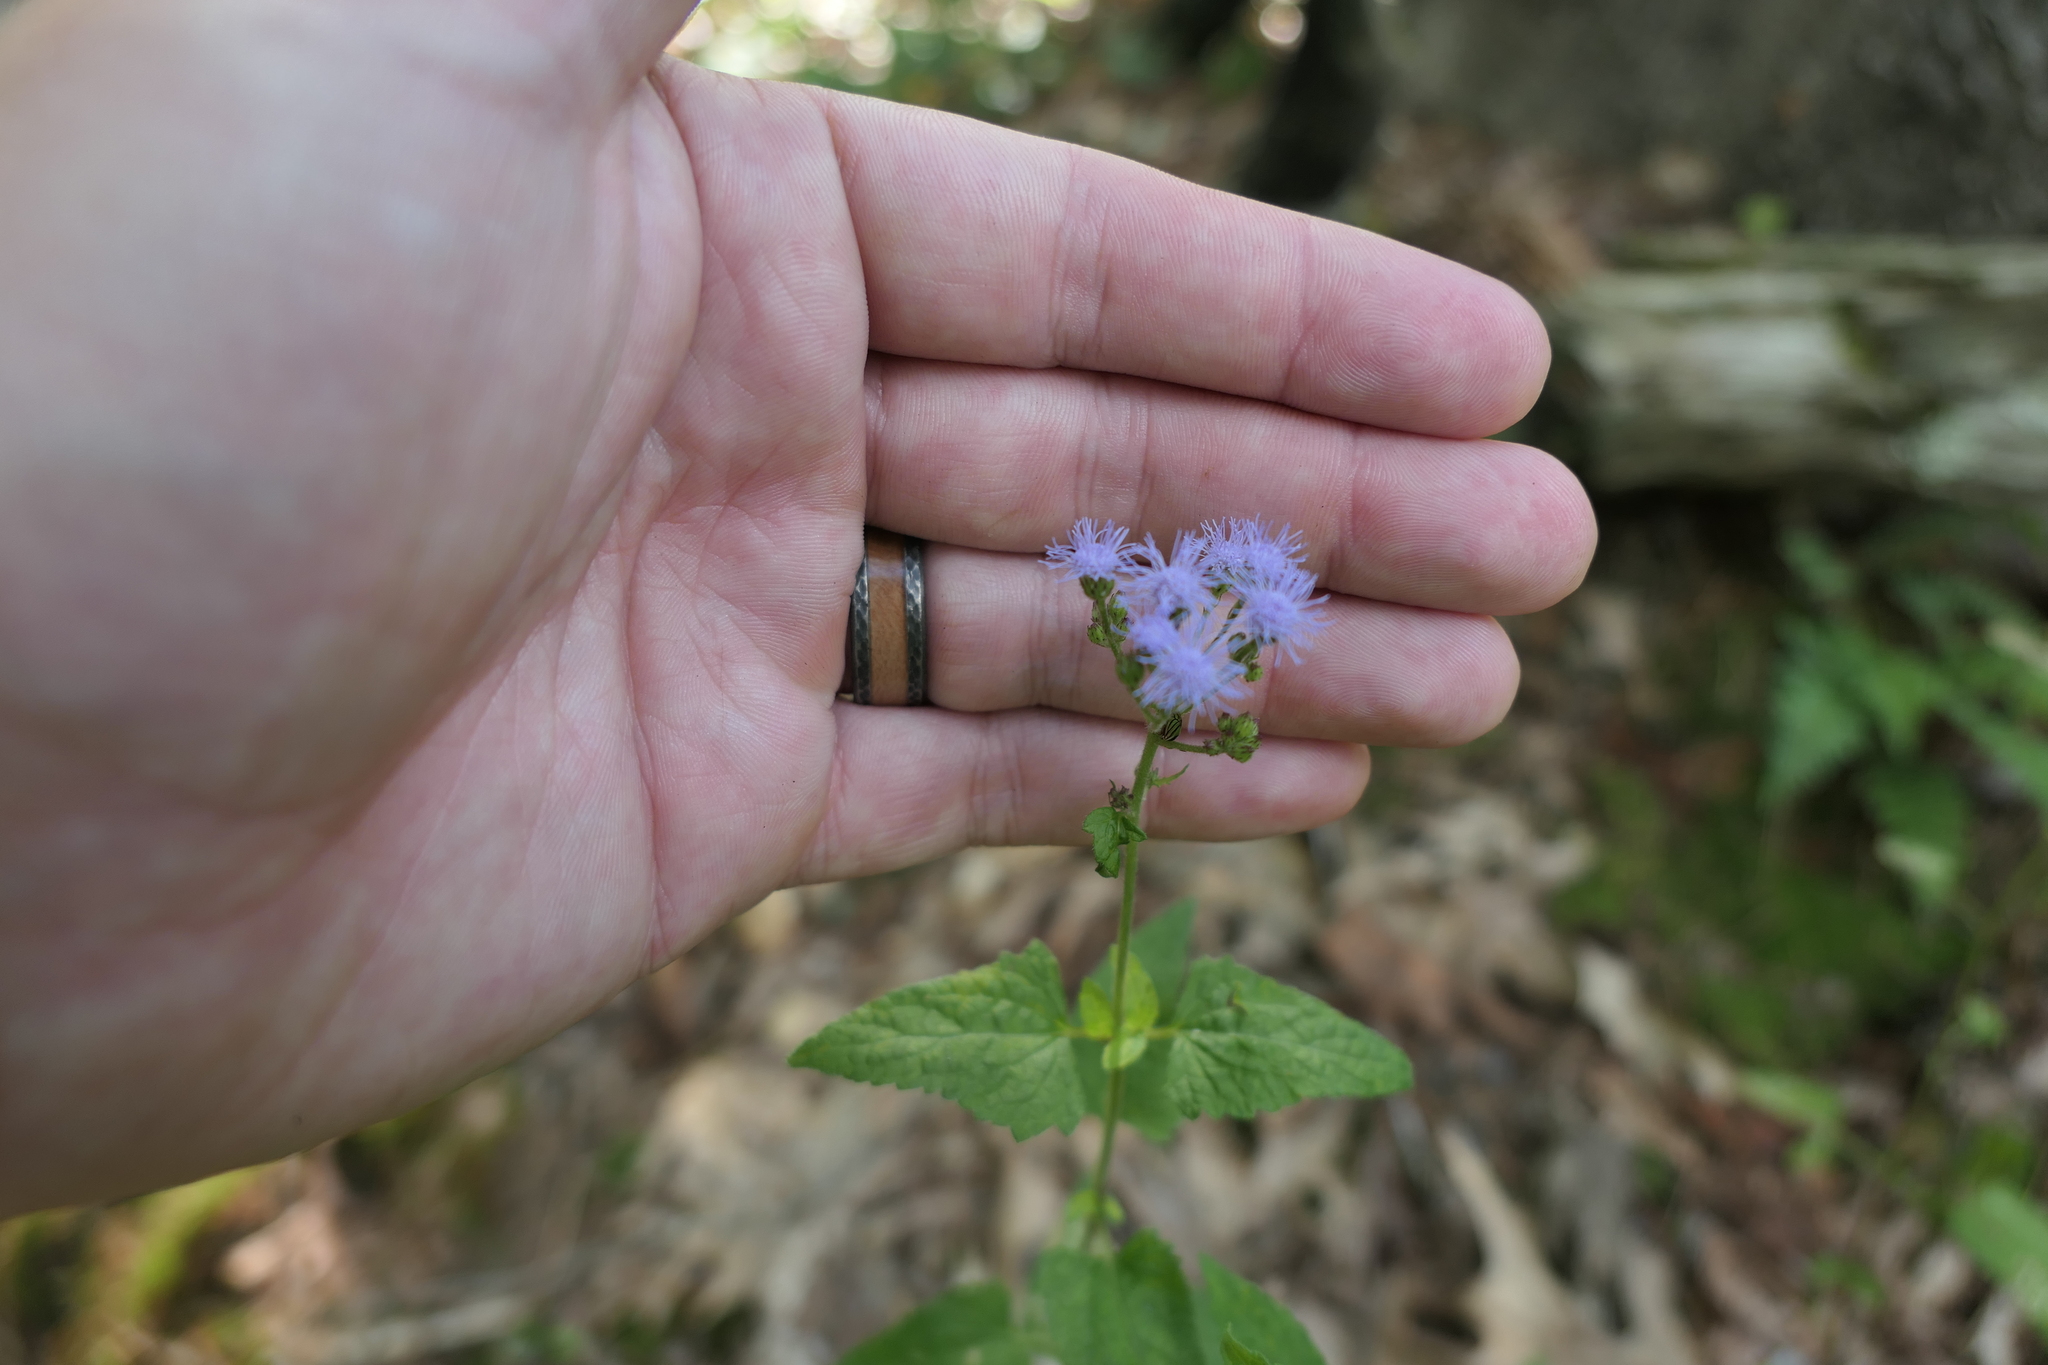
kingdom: Plantae
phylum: Tracheophyta
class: Magnoliopsida
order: Asterales
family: Asteraceae
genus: Conoclinium
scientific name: Conoclinium coelestinum
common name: Blue mistflower
